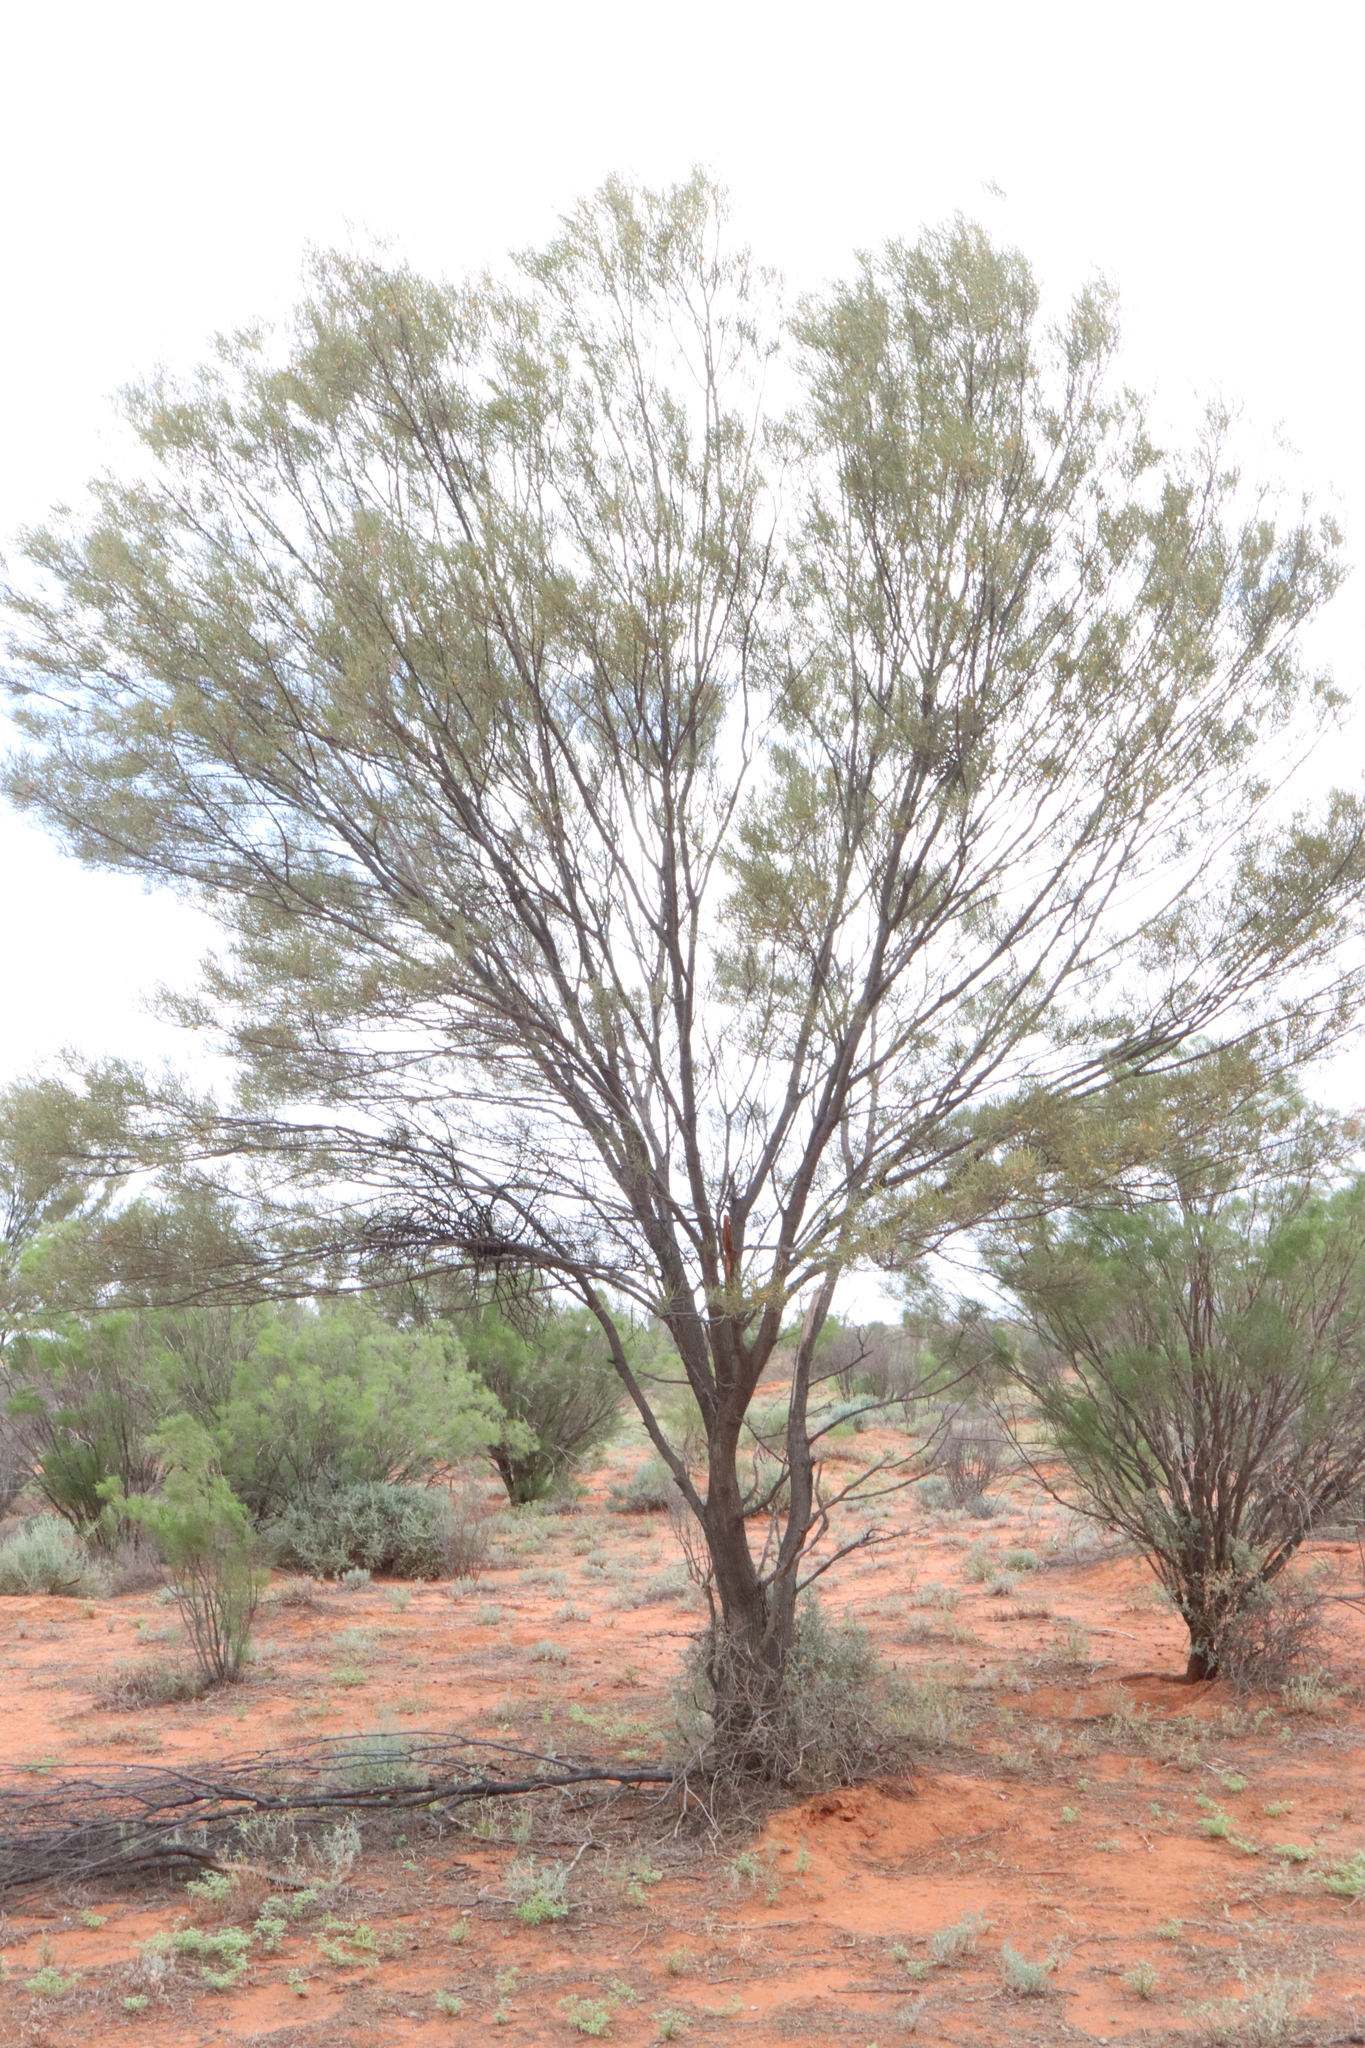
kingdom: Plantae
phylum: Tracheophyta
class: Magnoliopsida
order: Fabales
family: Fabaceae
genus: Acacia
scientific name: Acacia aneura
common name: Mulga
